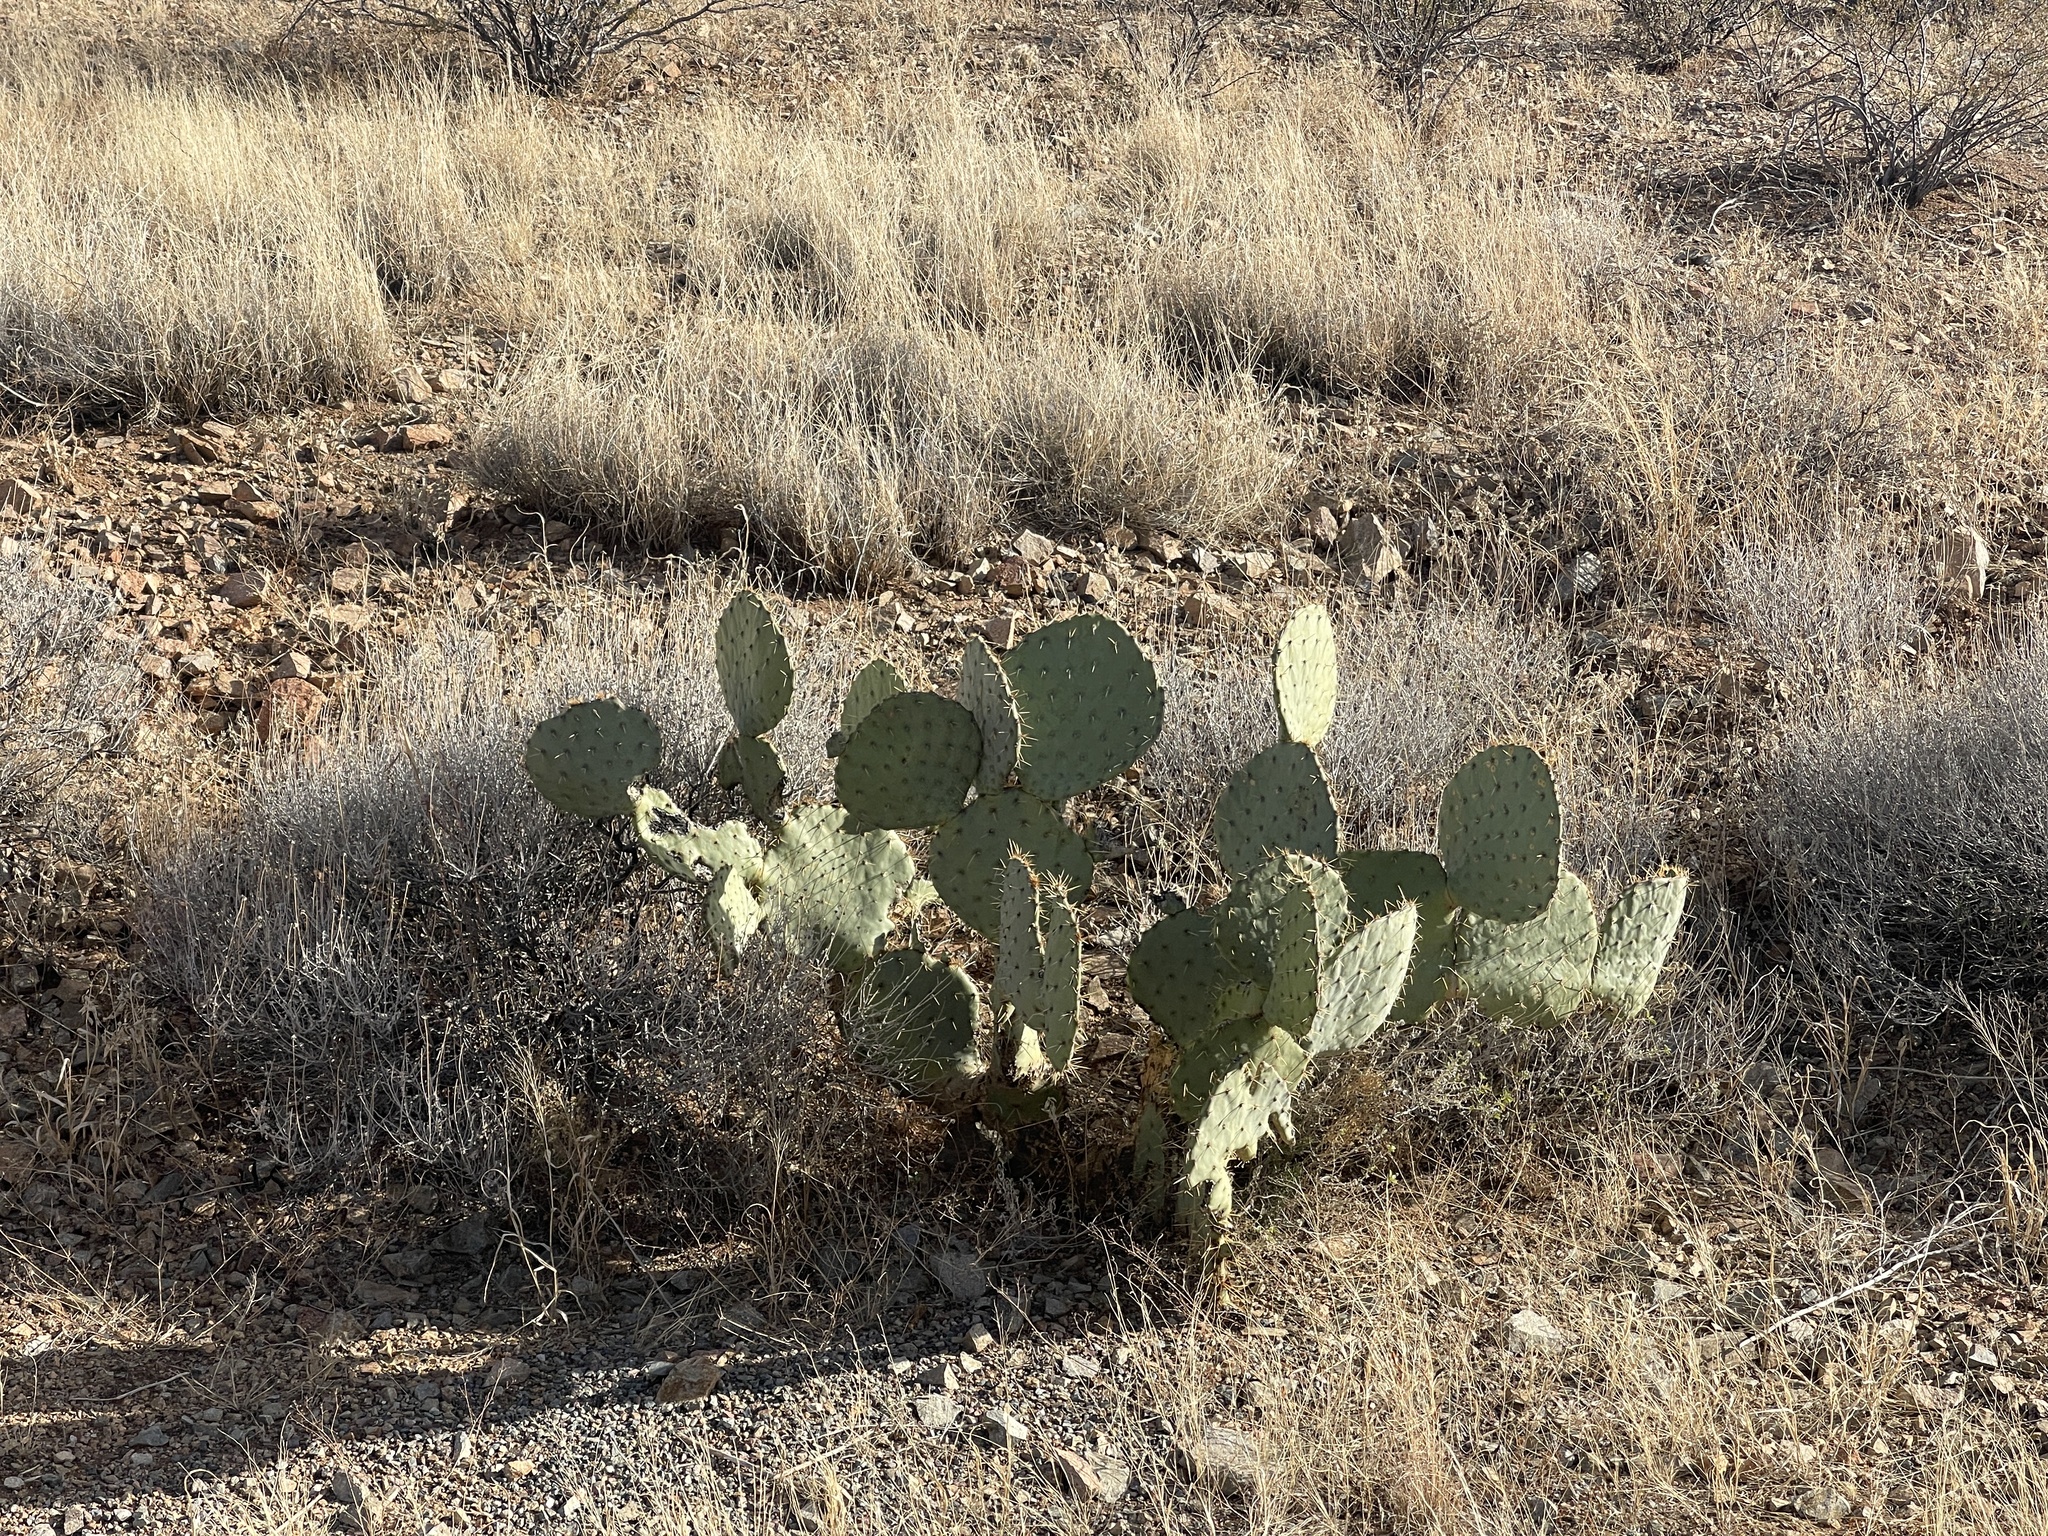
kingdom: Plantae
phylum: Tracheophyta
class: Magnoliopsida
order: Caryophyllales
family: Cactaceae
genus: Opuntia
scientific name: Opuntia engelmannii
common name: Cactus-apple
